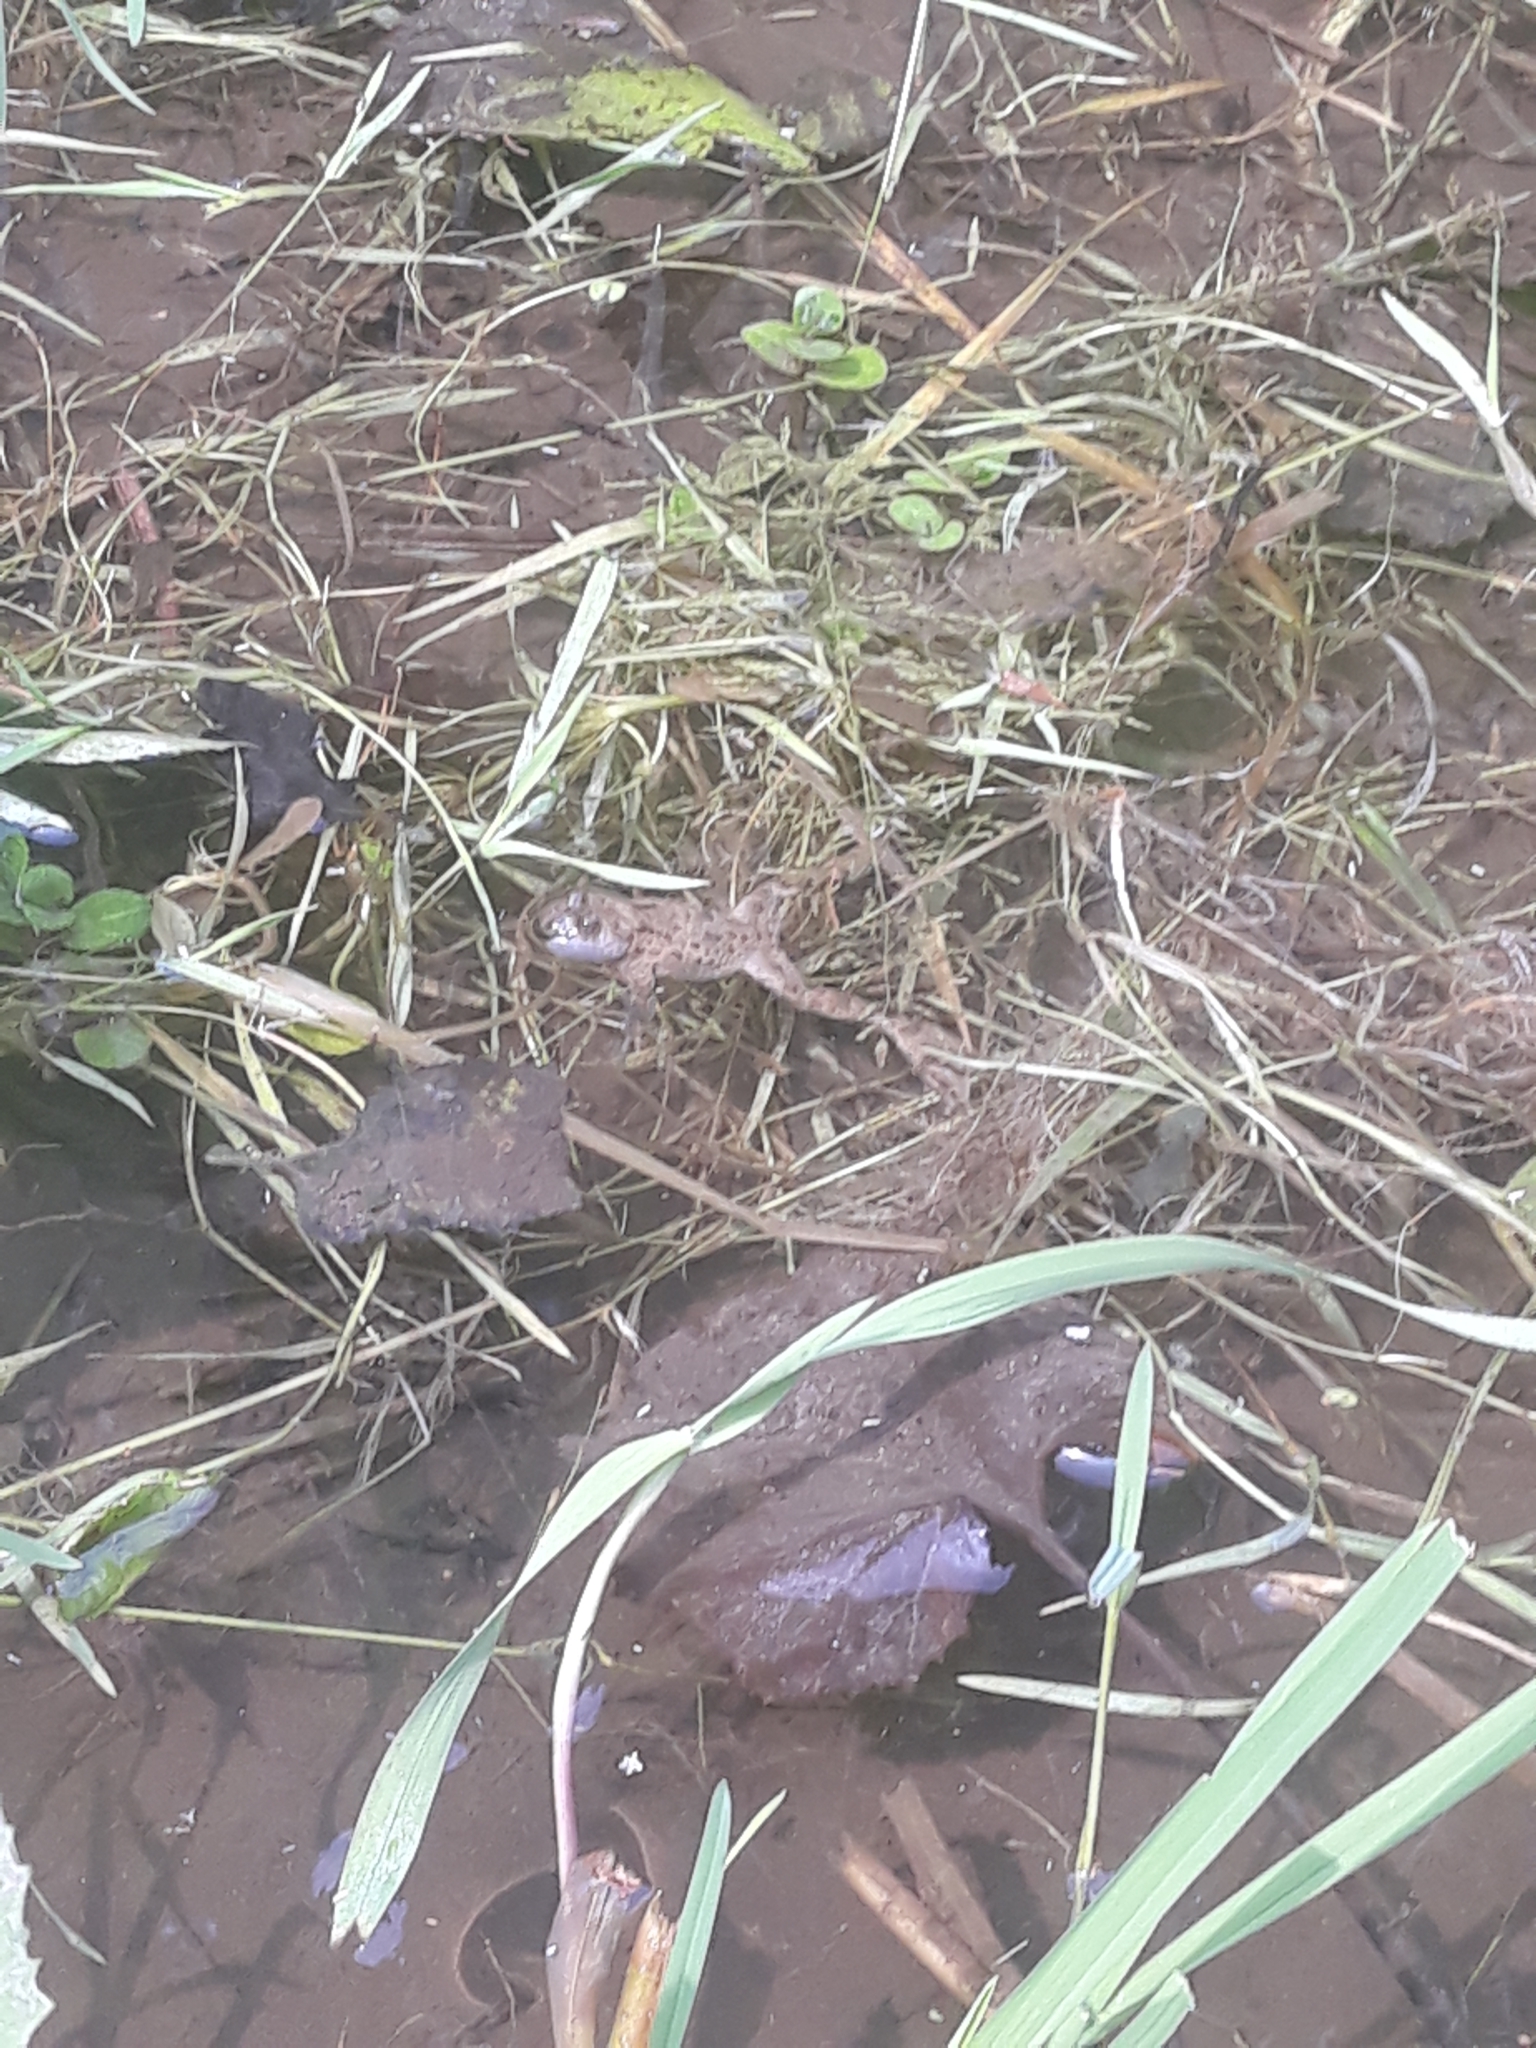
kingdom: Animalia
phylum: Chordata
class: Amphibia
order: Anura
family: Bombinatoridae
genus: Bombina
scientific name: Bombina variegata
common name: Yellow-bellied toad
